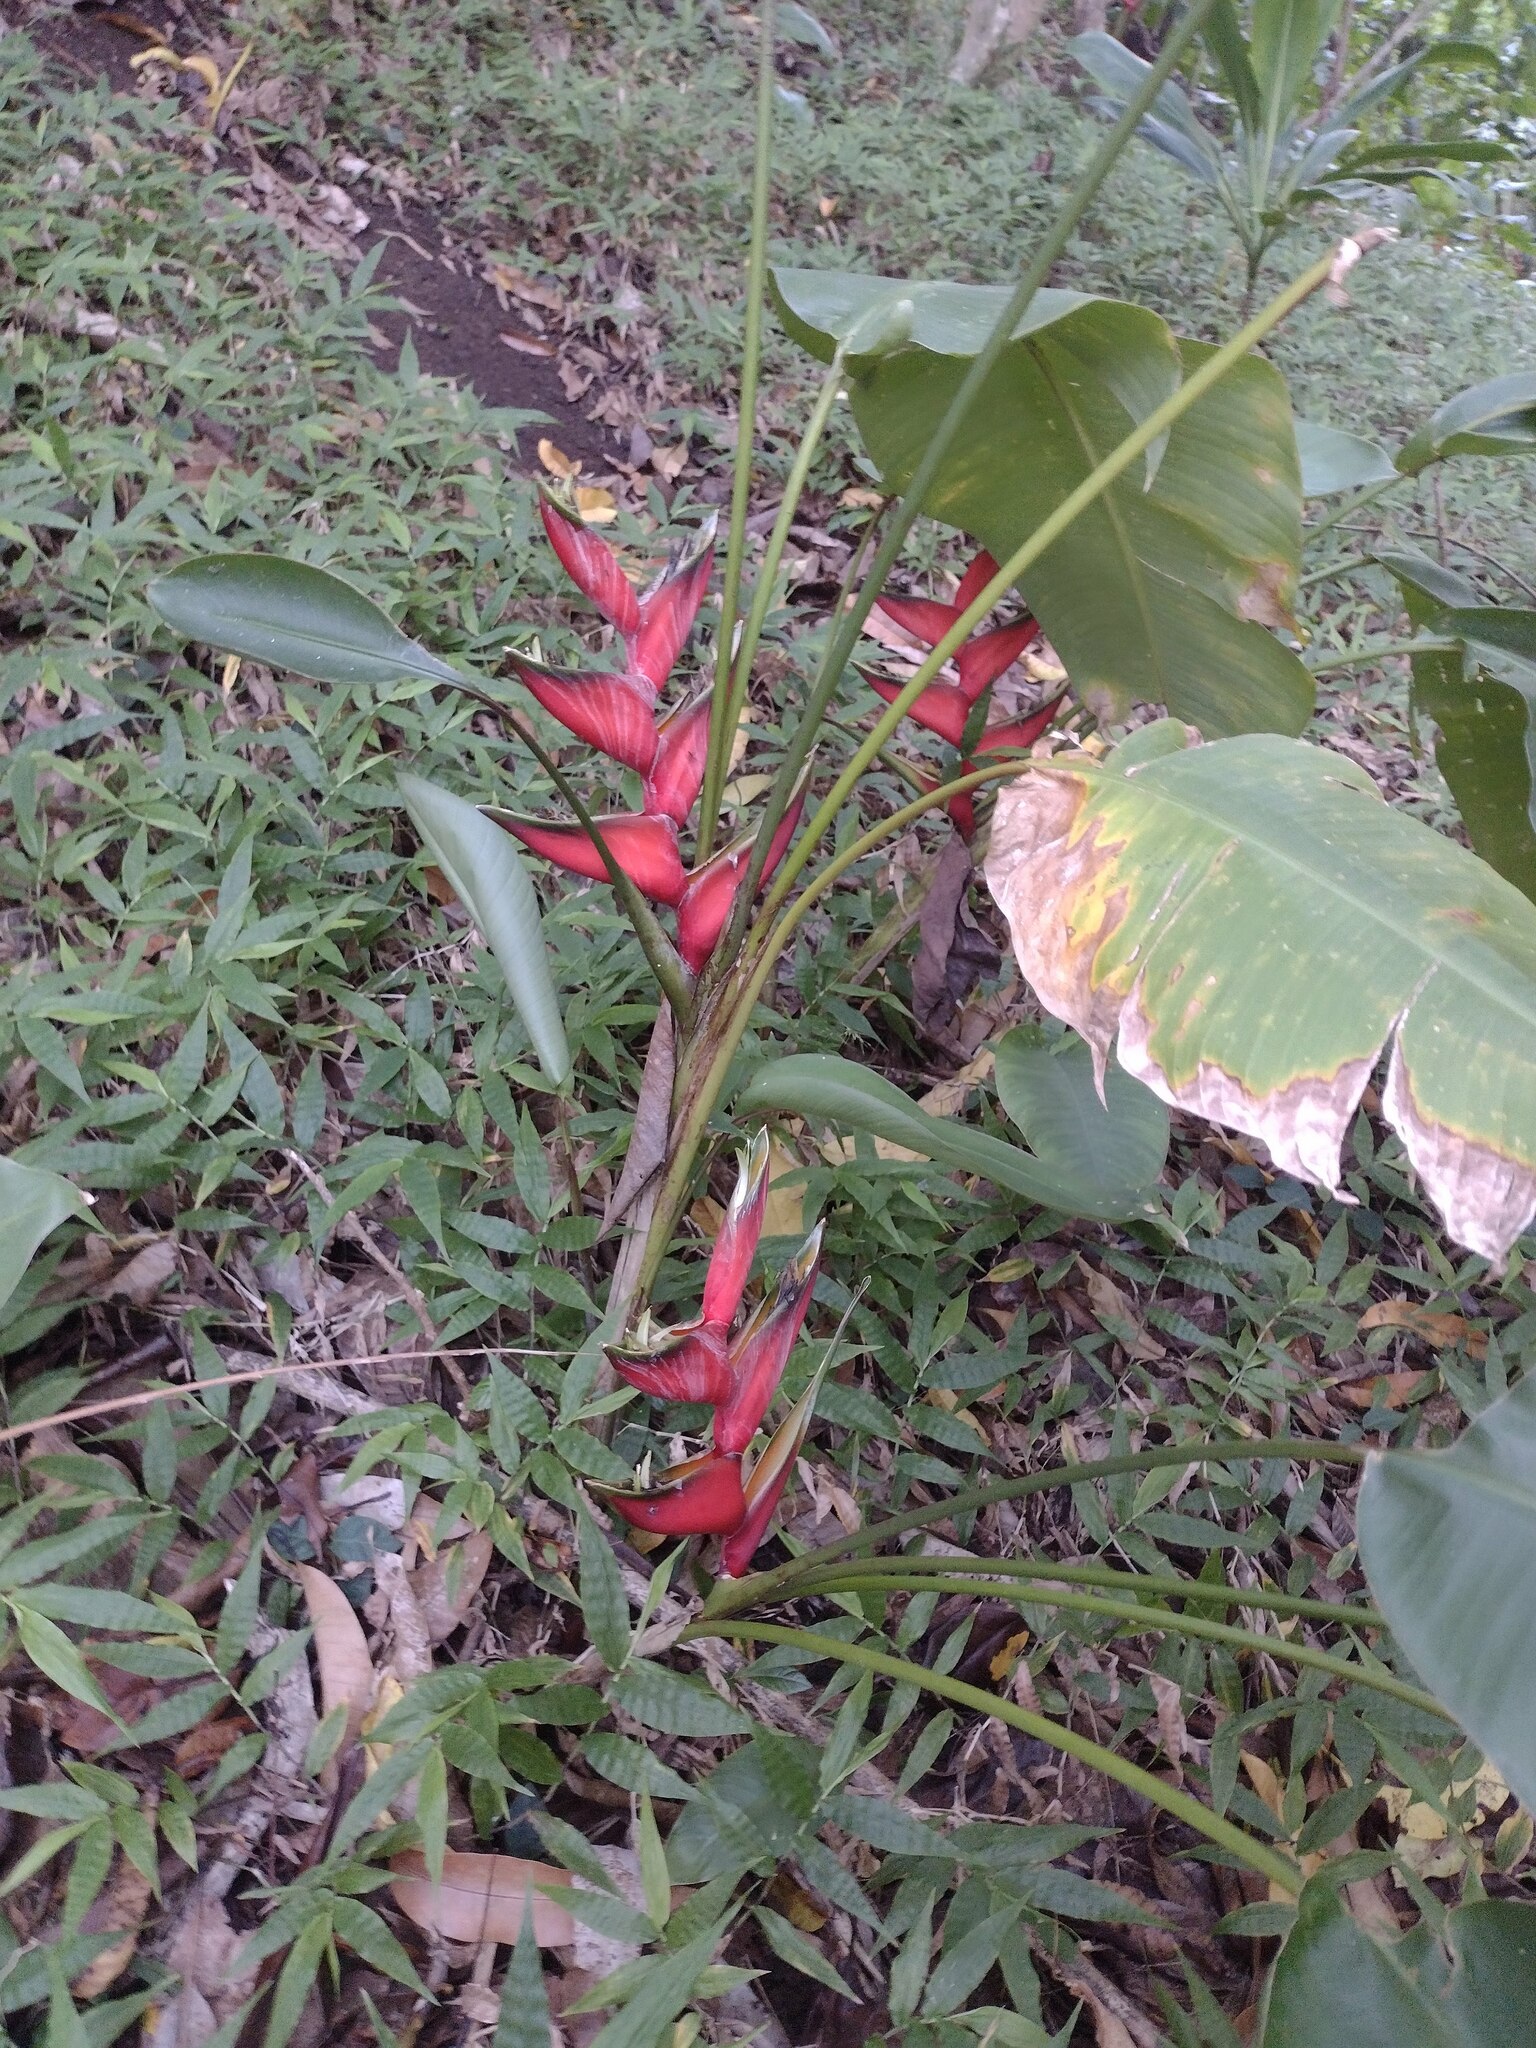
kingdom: Plantae
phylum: Tracheophyta
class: Liliopsida
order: Zingiberales
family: Heliconiaceae
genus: Heliconia
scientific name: Heliconia bihai
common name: Macaw flower
